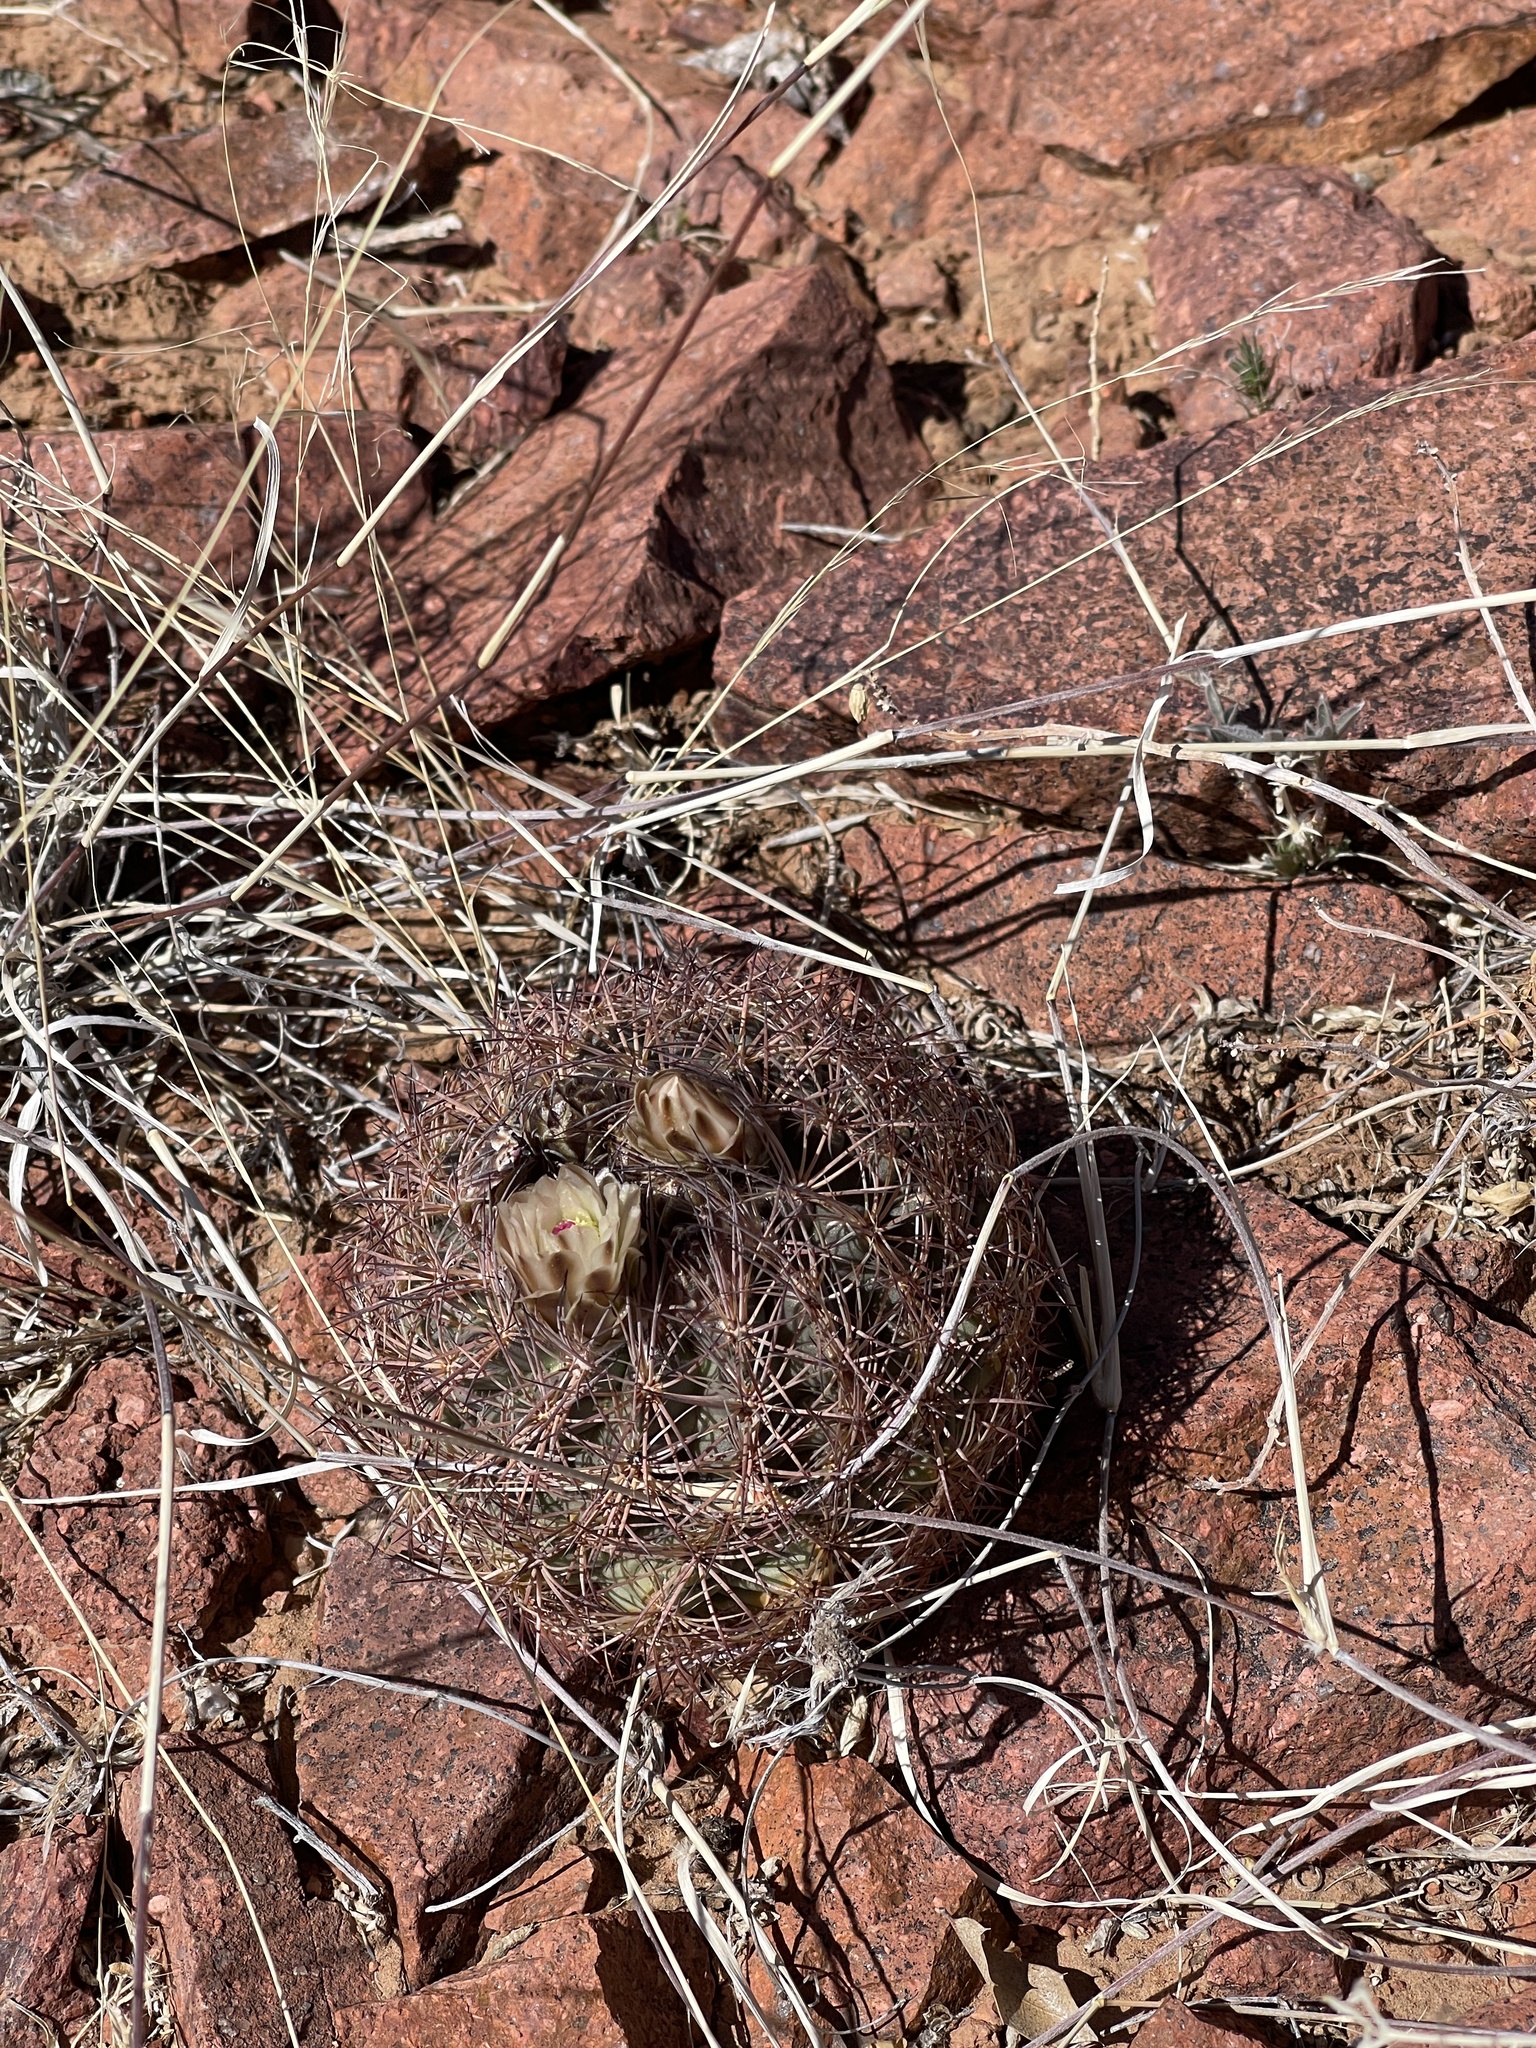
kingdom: Plantae
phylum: Tracheophyta
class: Magnoliopsida
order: Caryophyllales
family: Cactaceae
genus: Sclerocactus
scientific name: Sclerocactus intertextus
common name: White fish-hook cactus
